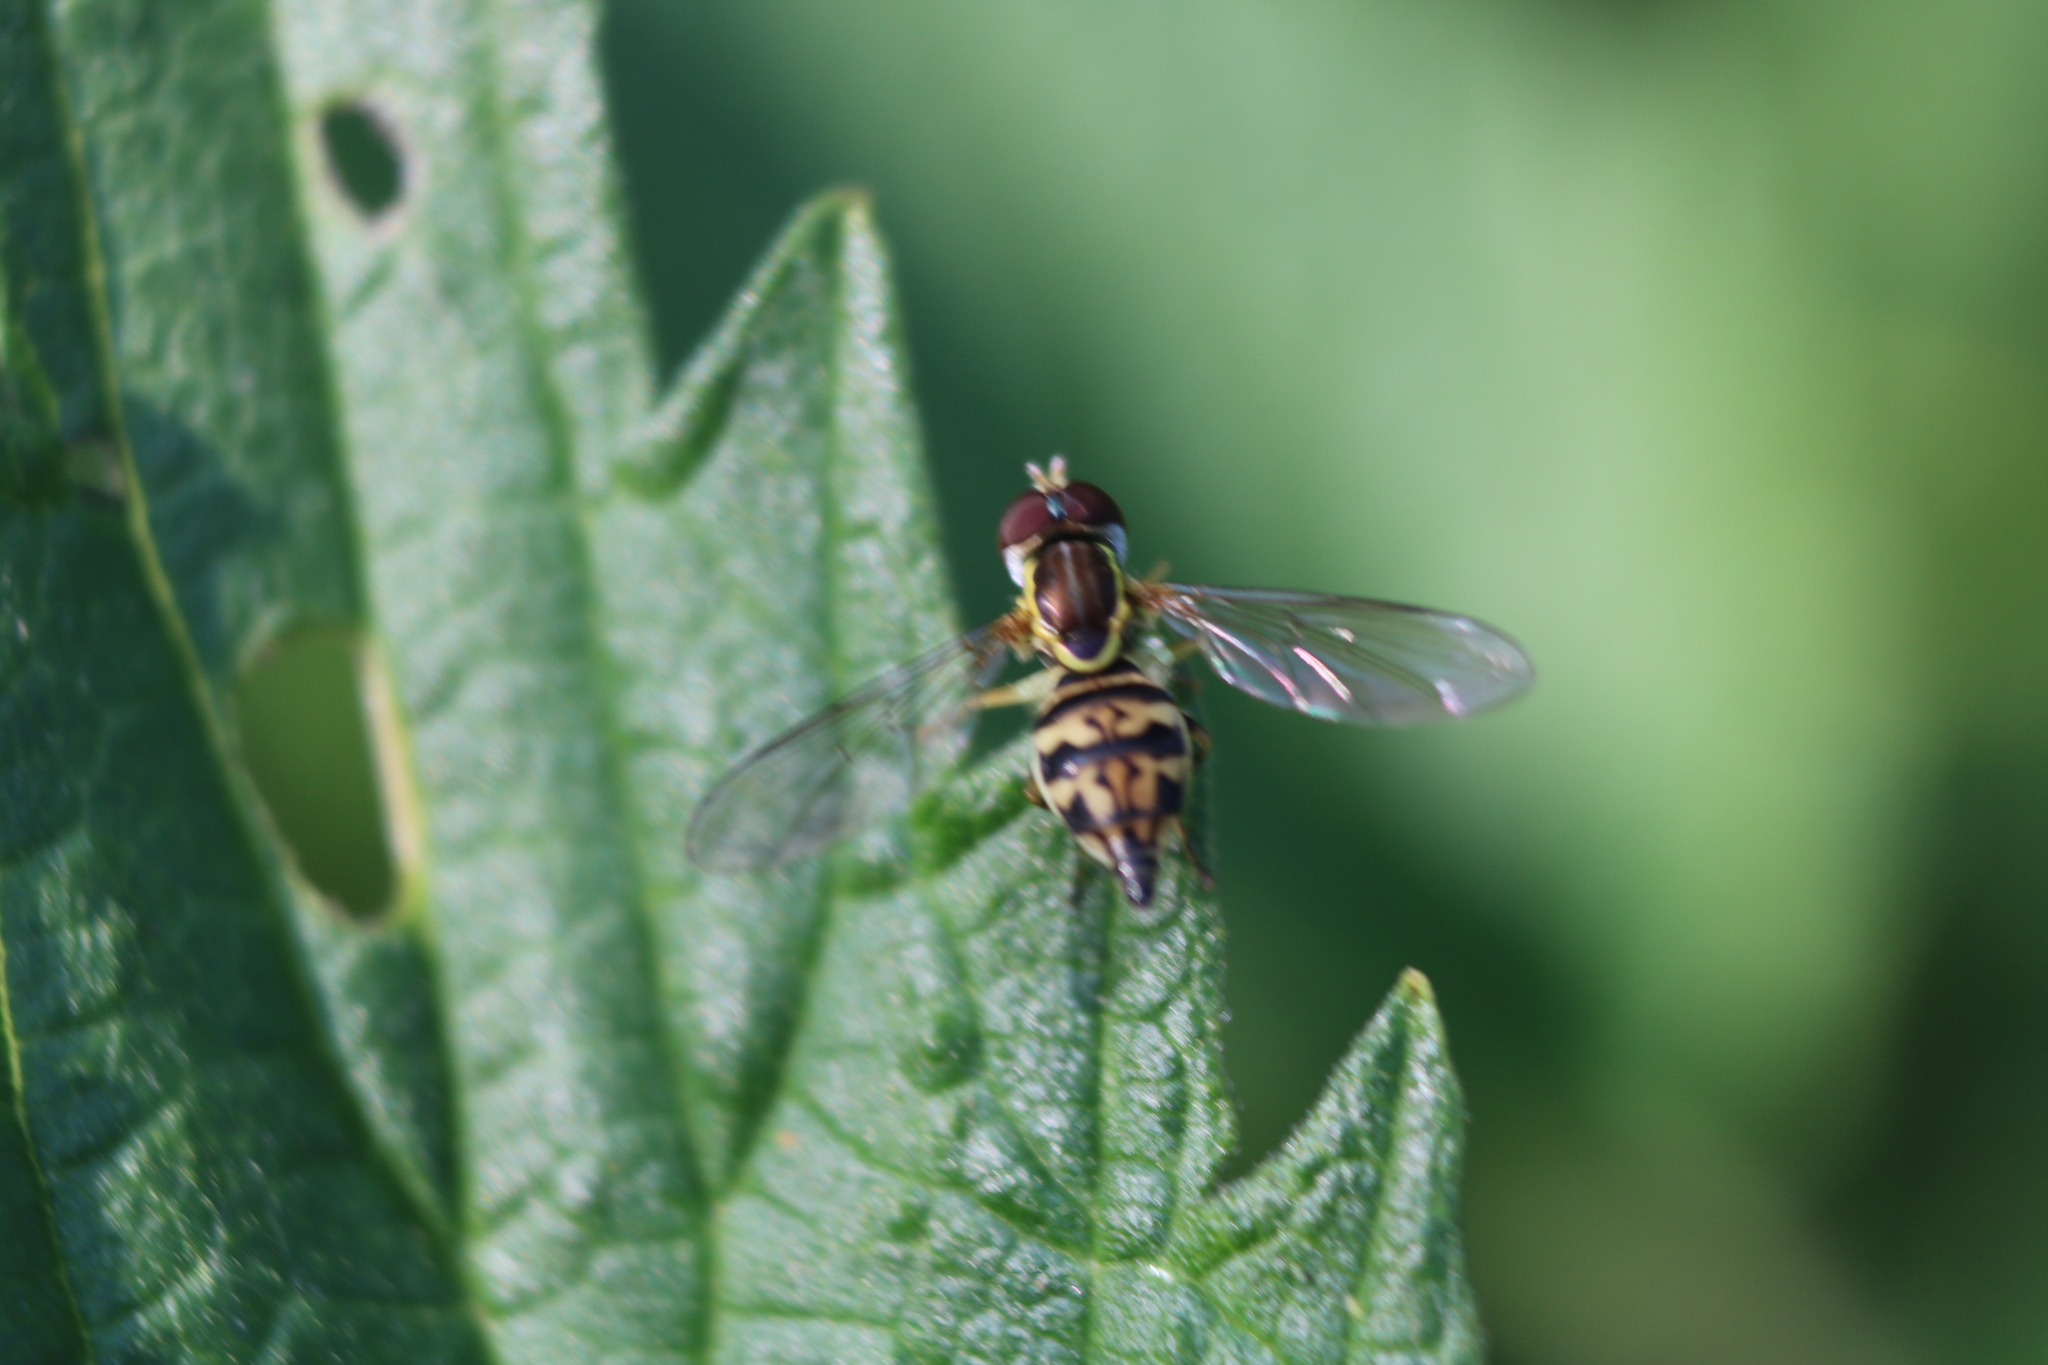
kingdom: Animalia
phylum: Arthropoda
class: Insecta
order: Diptera
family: Syrphidae
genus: Toxomerus
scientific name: Toxomerus geminatus
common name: Eastern calligrapher
